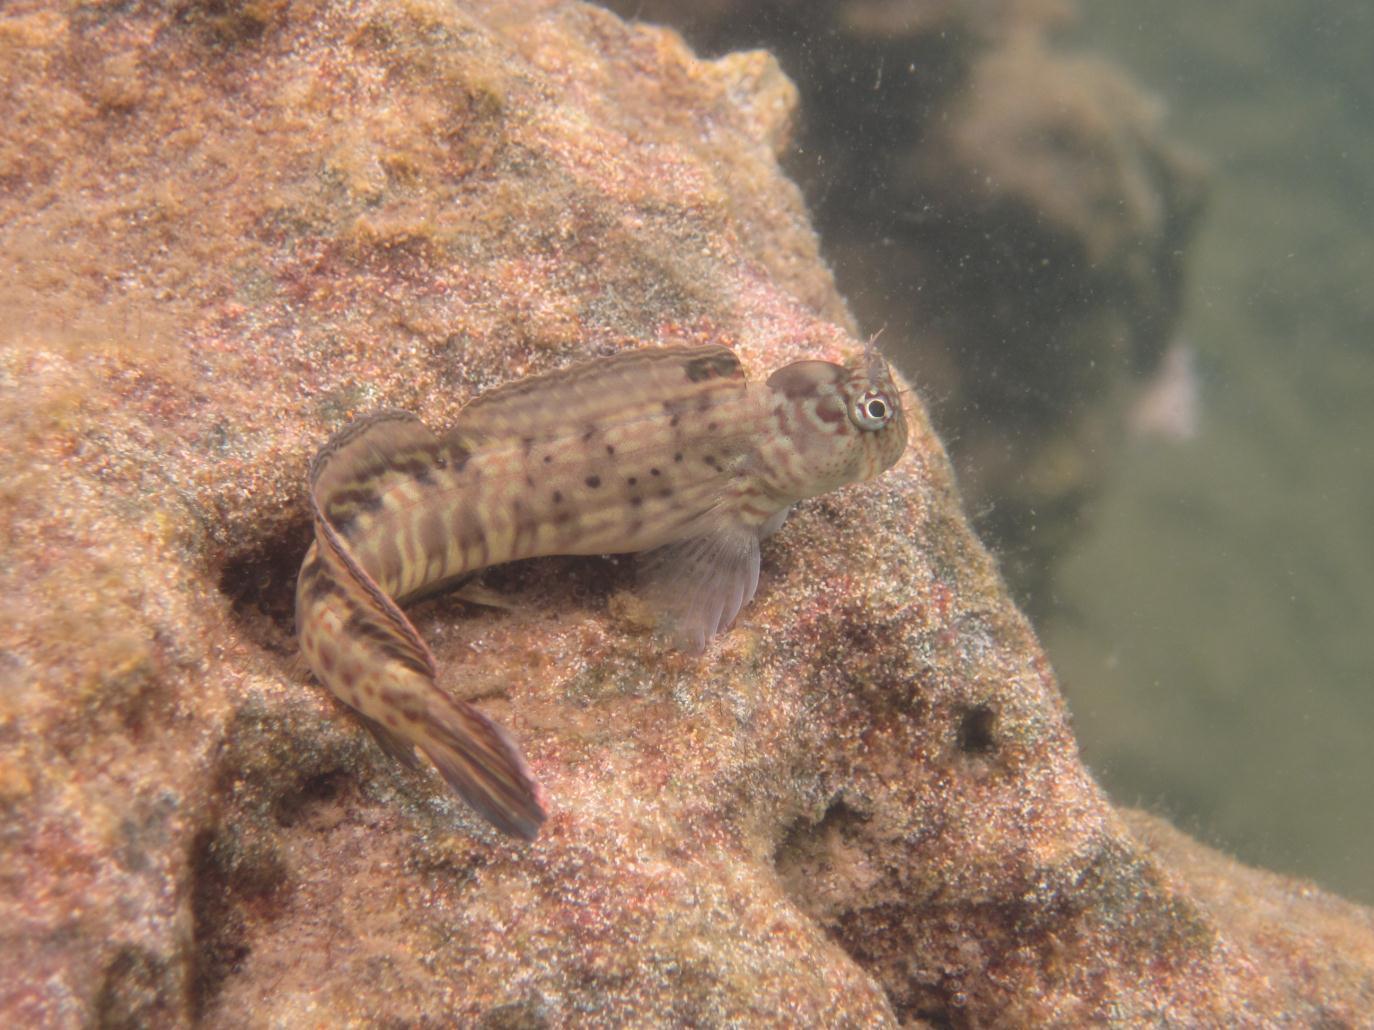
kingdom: Animalia
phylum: Chordata
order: Perciformes
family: Blenniidae
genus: Istiblennius
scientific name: Istiblennius dussumieri
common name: Dussumier's rockskipper
